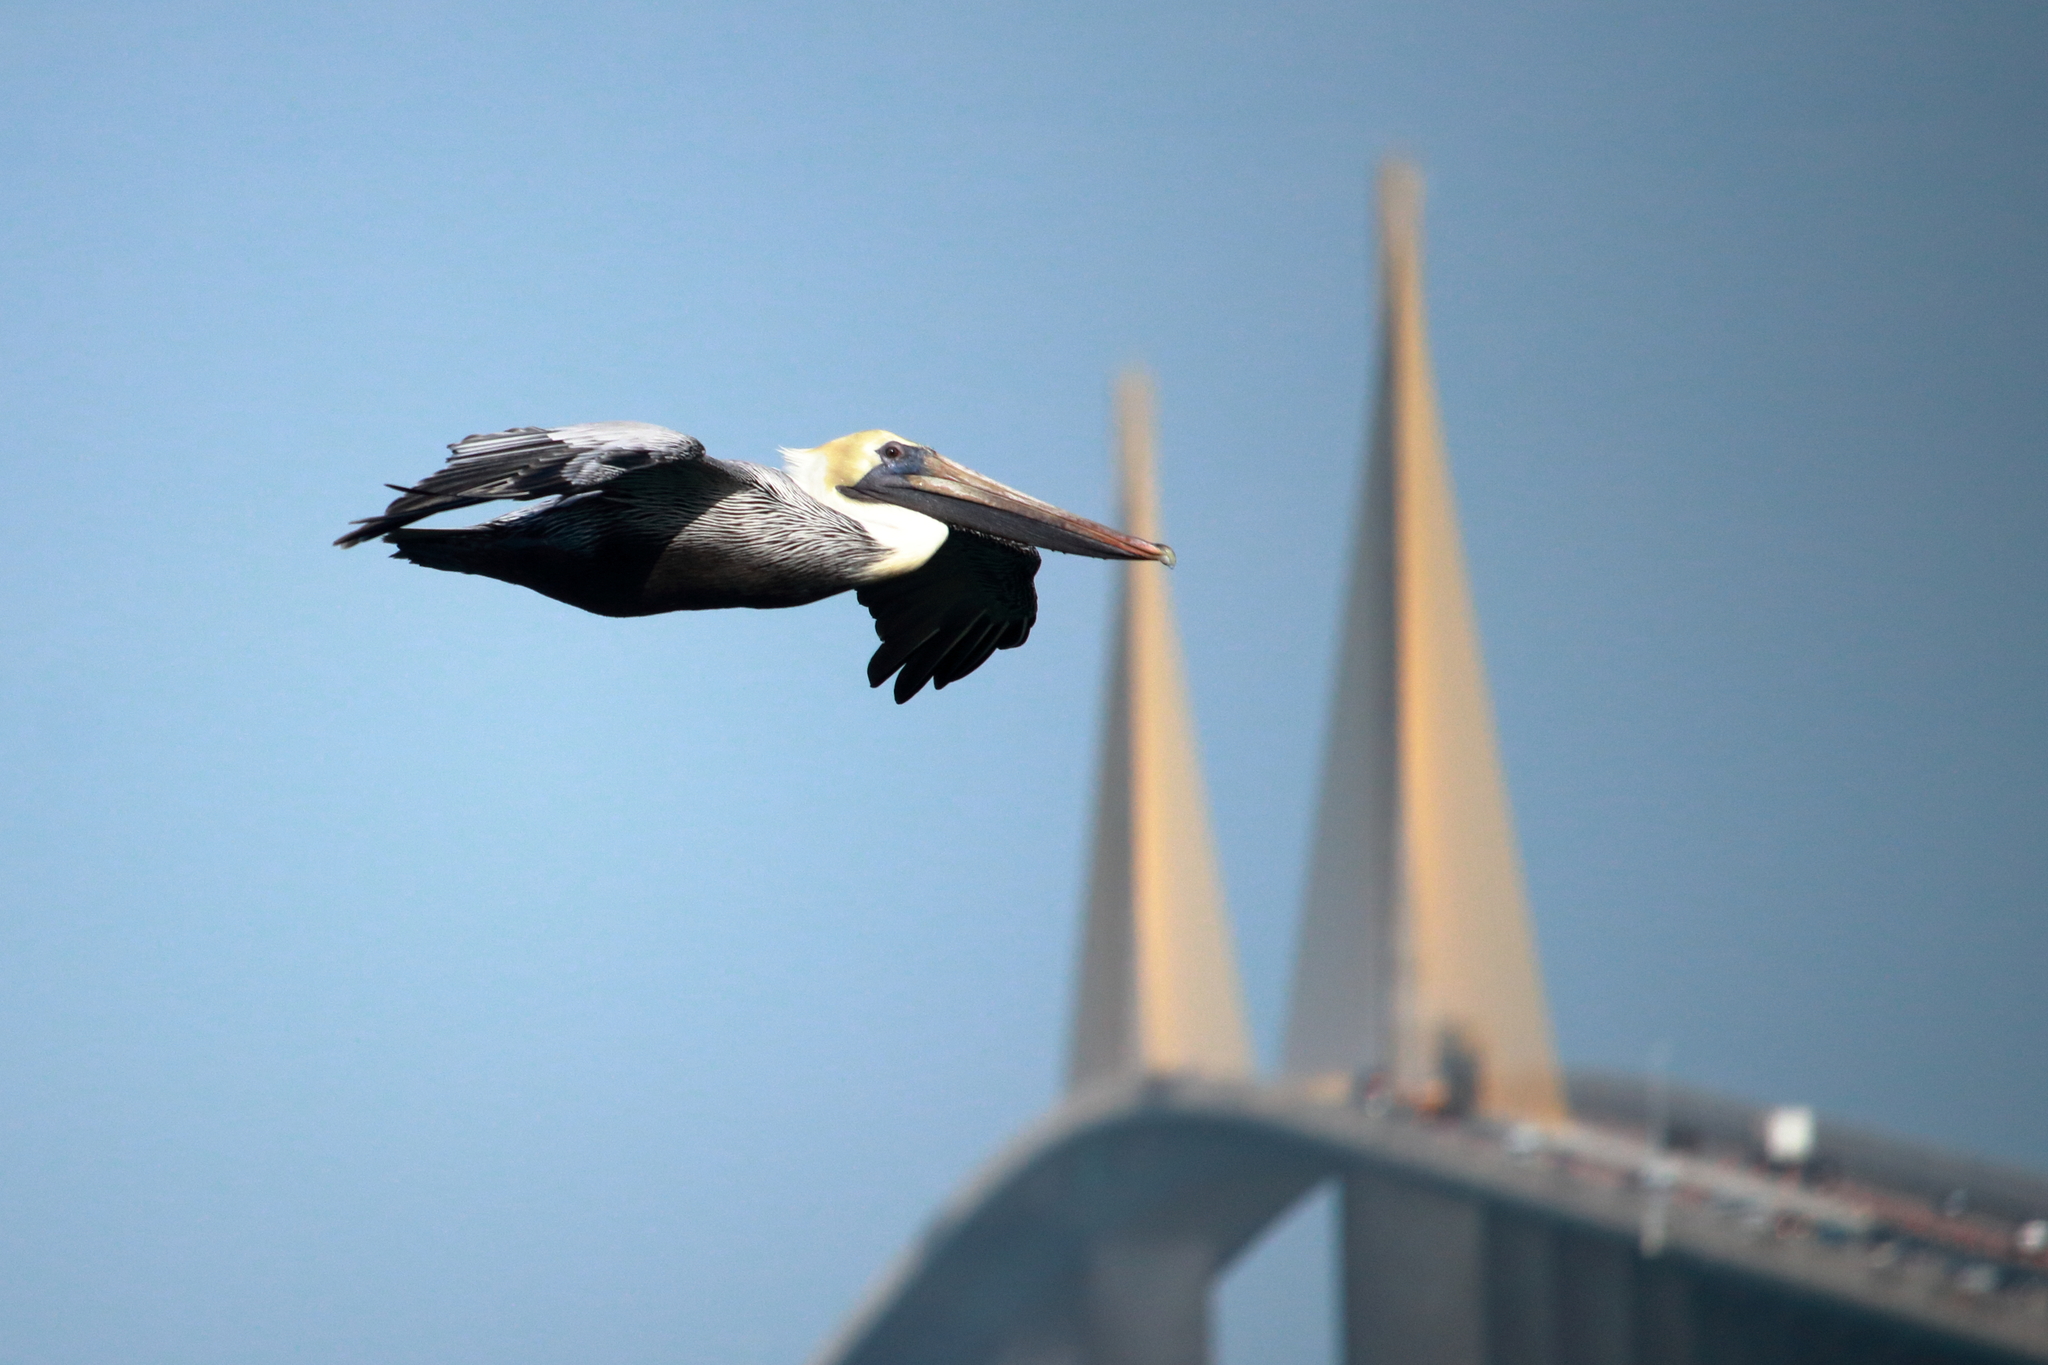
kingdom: Animalia
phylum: Chordata
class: Aves
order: Pelecaniformes
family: Pelecanidae
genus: Pelecanus
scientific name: Pelecanus occidentalis
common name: Brown pelican
